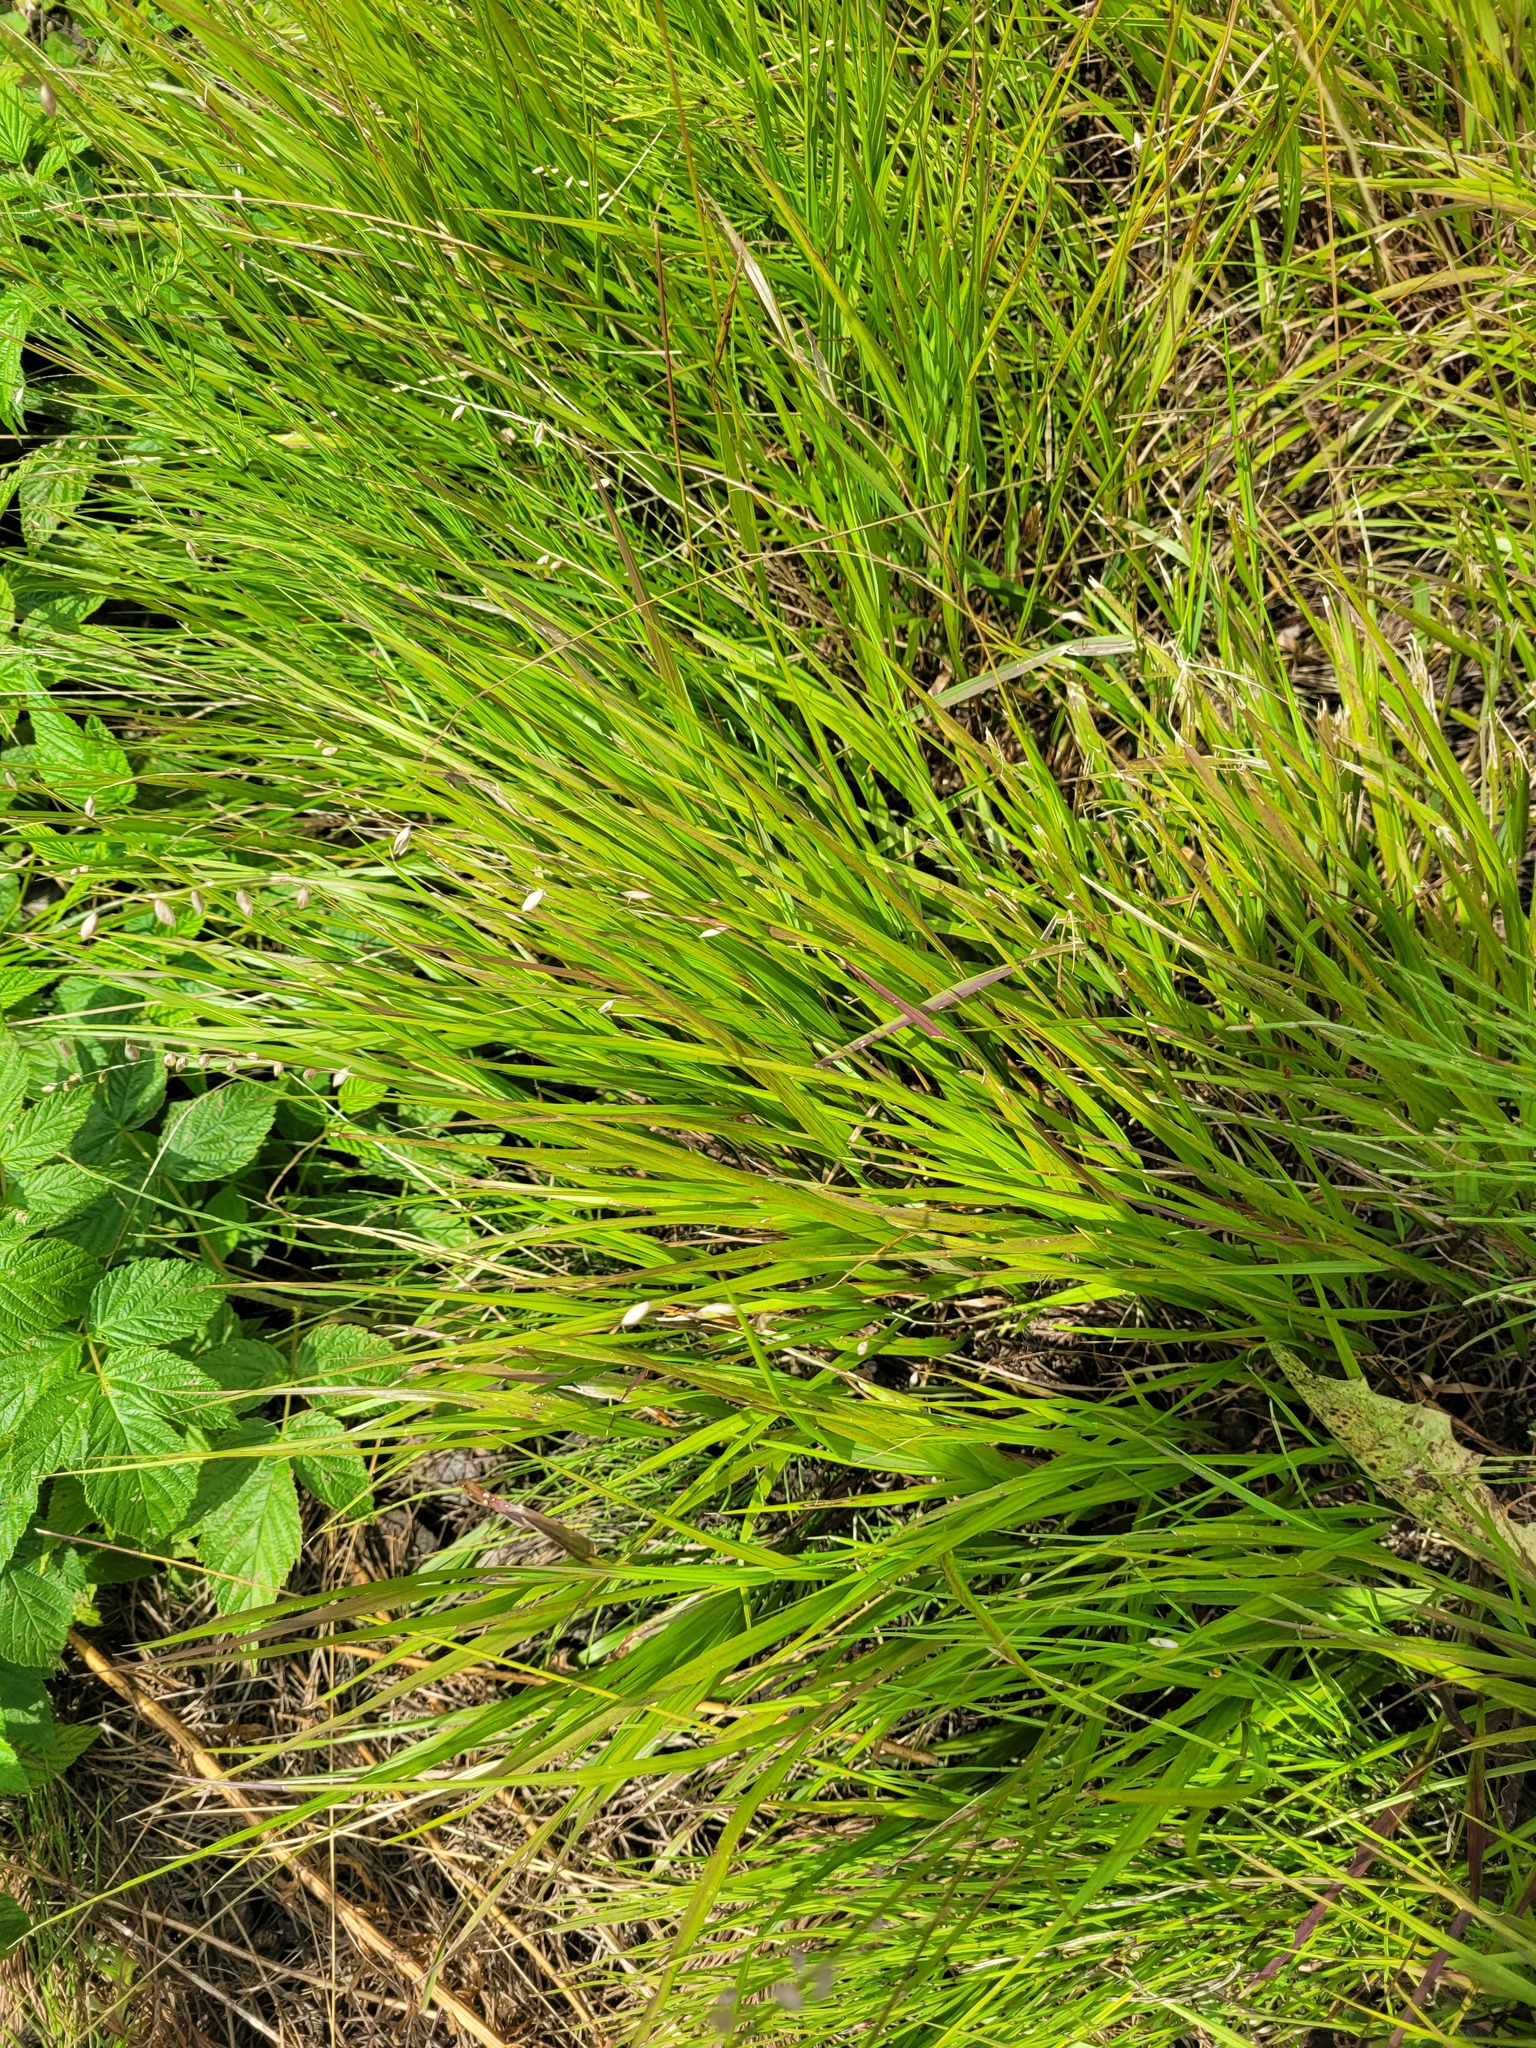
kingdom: Plantae
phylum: Tracheophyta
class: Liliopsida
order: Poales
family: Poaceae
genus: Melica
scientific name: Melica nutans
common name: Mountain melick
